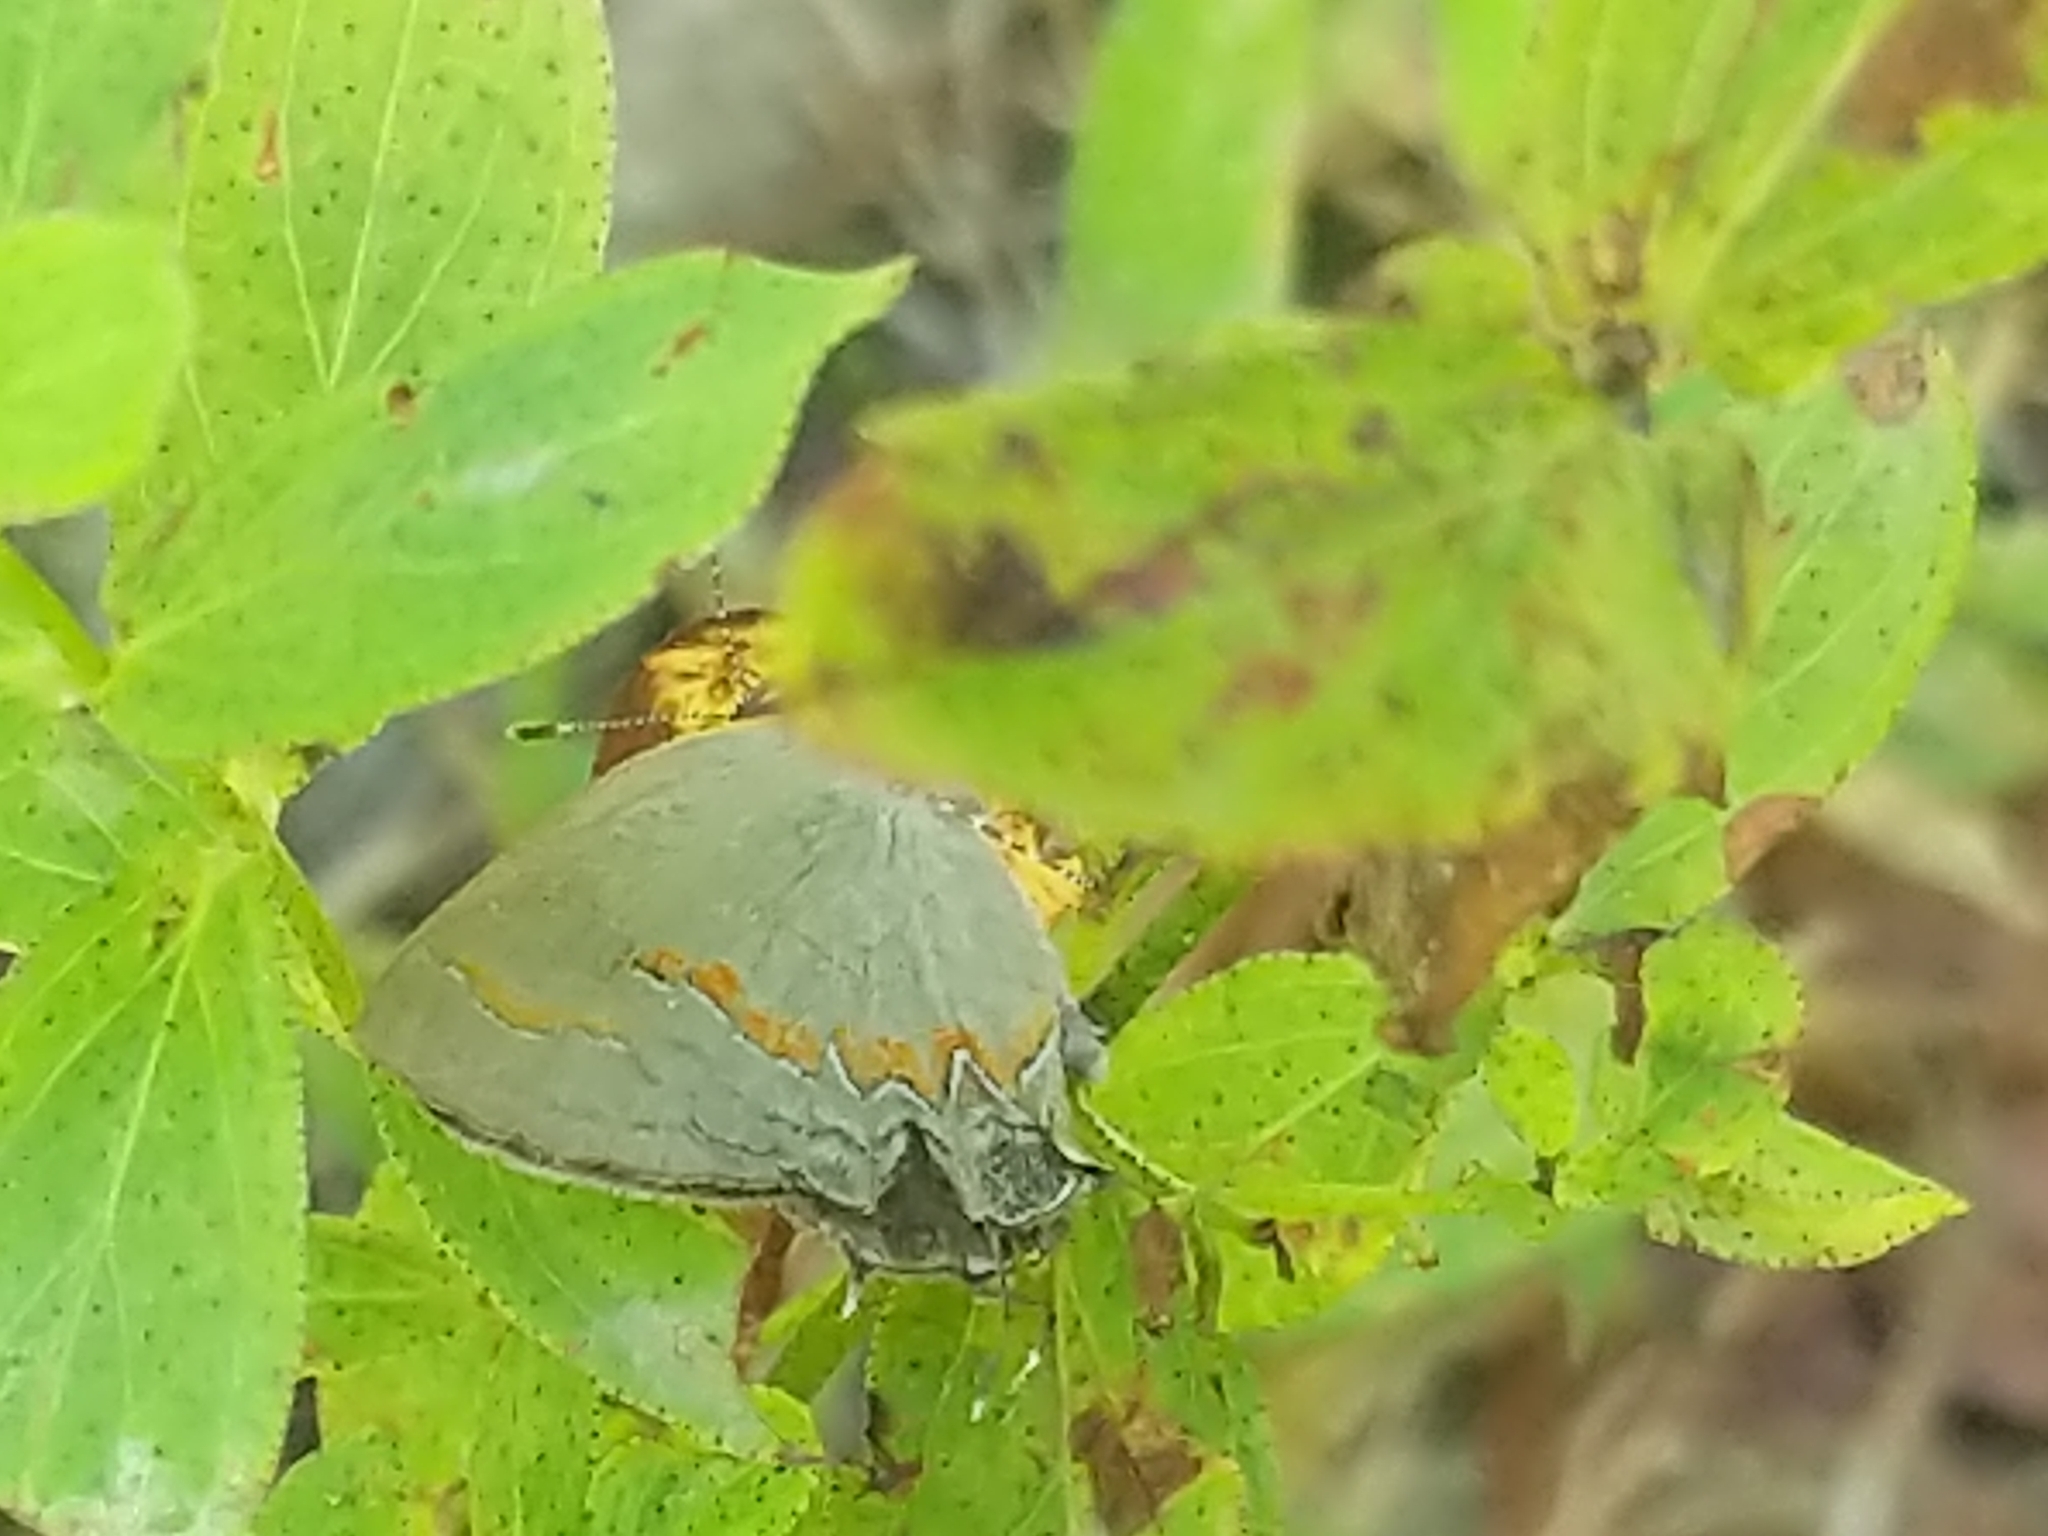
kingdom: Animalia
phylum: Arthropoda
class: Insecta
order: Lepidoptera
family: Lycaenidae
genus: Calycopis
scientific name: Calycopis cecrops
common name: Red-banded hairstreak
